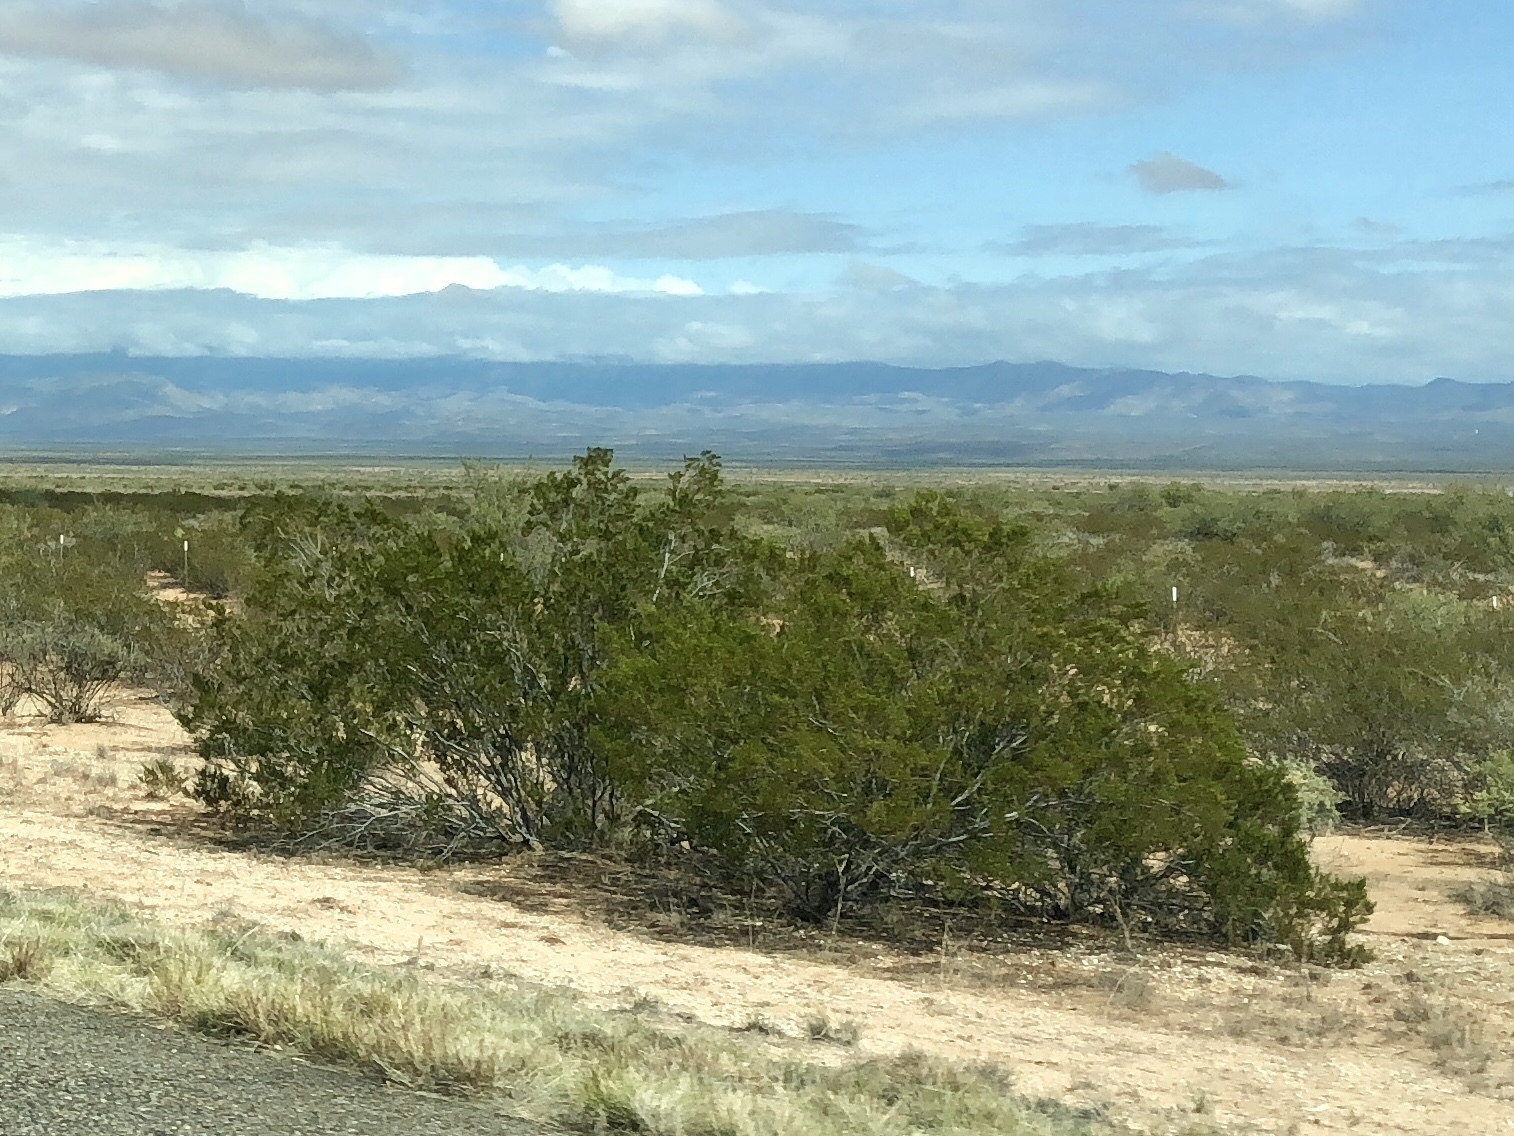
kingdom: Plantae
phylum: Tracheophyta
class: Magnoliopsida
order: Zygophyllales
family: Zygophyllaceae
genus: Larrea
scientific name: Larrea tridentata
